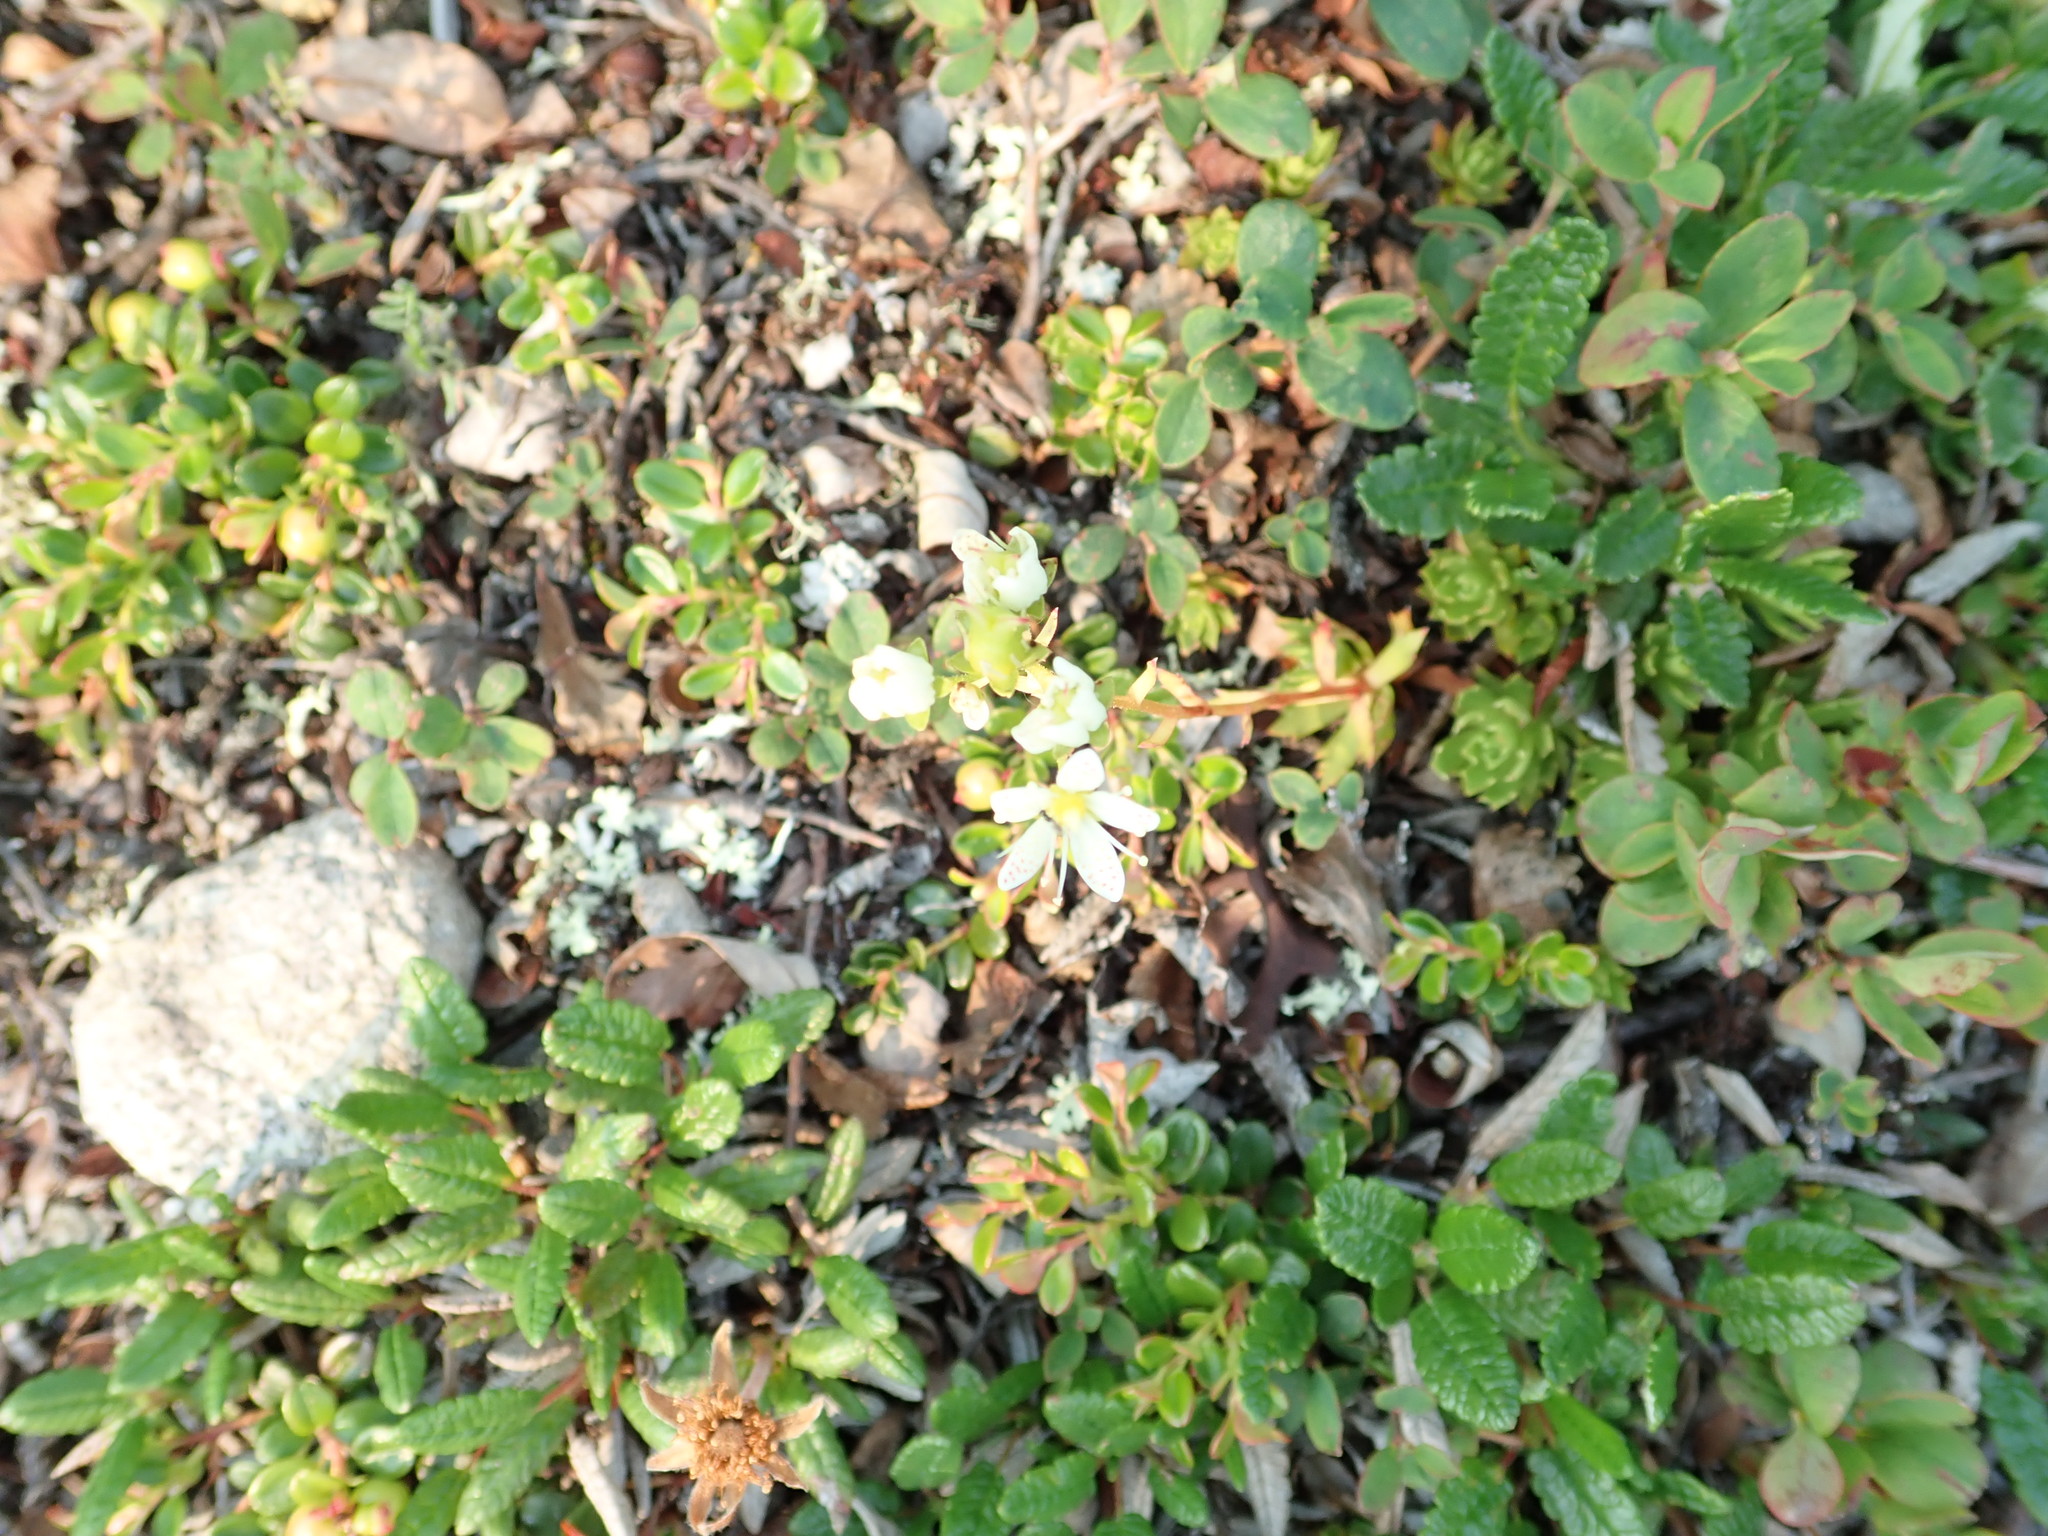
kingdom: Plantae
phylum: Tracheophyta
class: Magnoliopsida
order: Saxifragales
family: Saxifragaceae
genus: Saxifraga
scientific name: Saxifraga tricuspidata
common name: Prickly saxifrage
